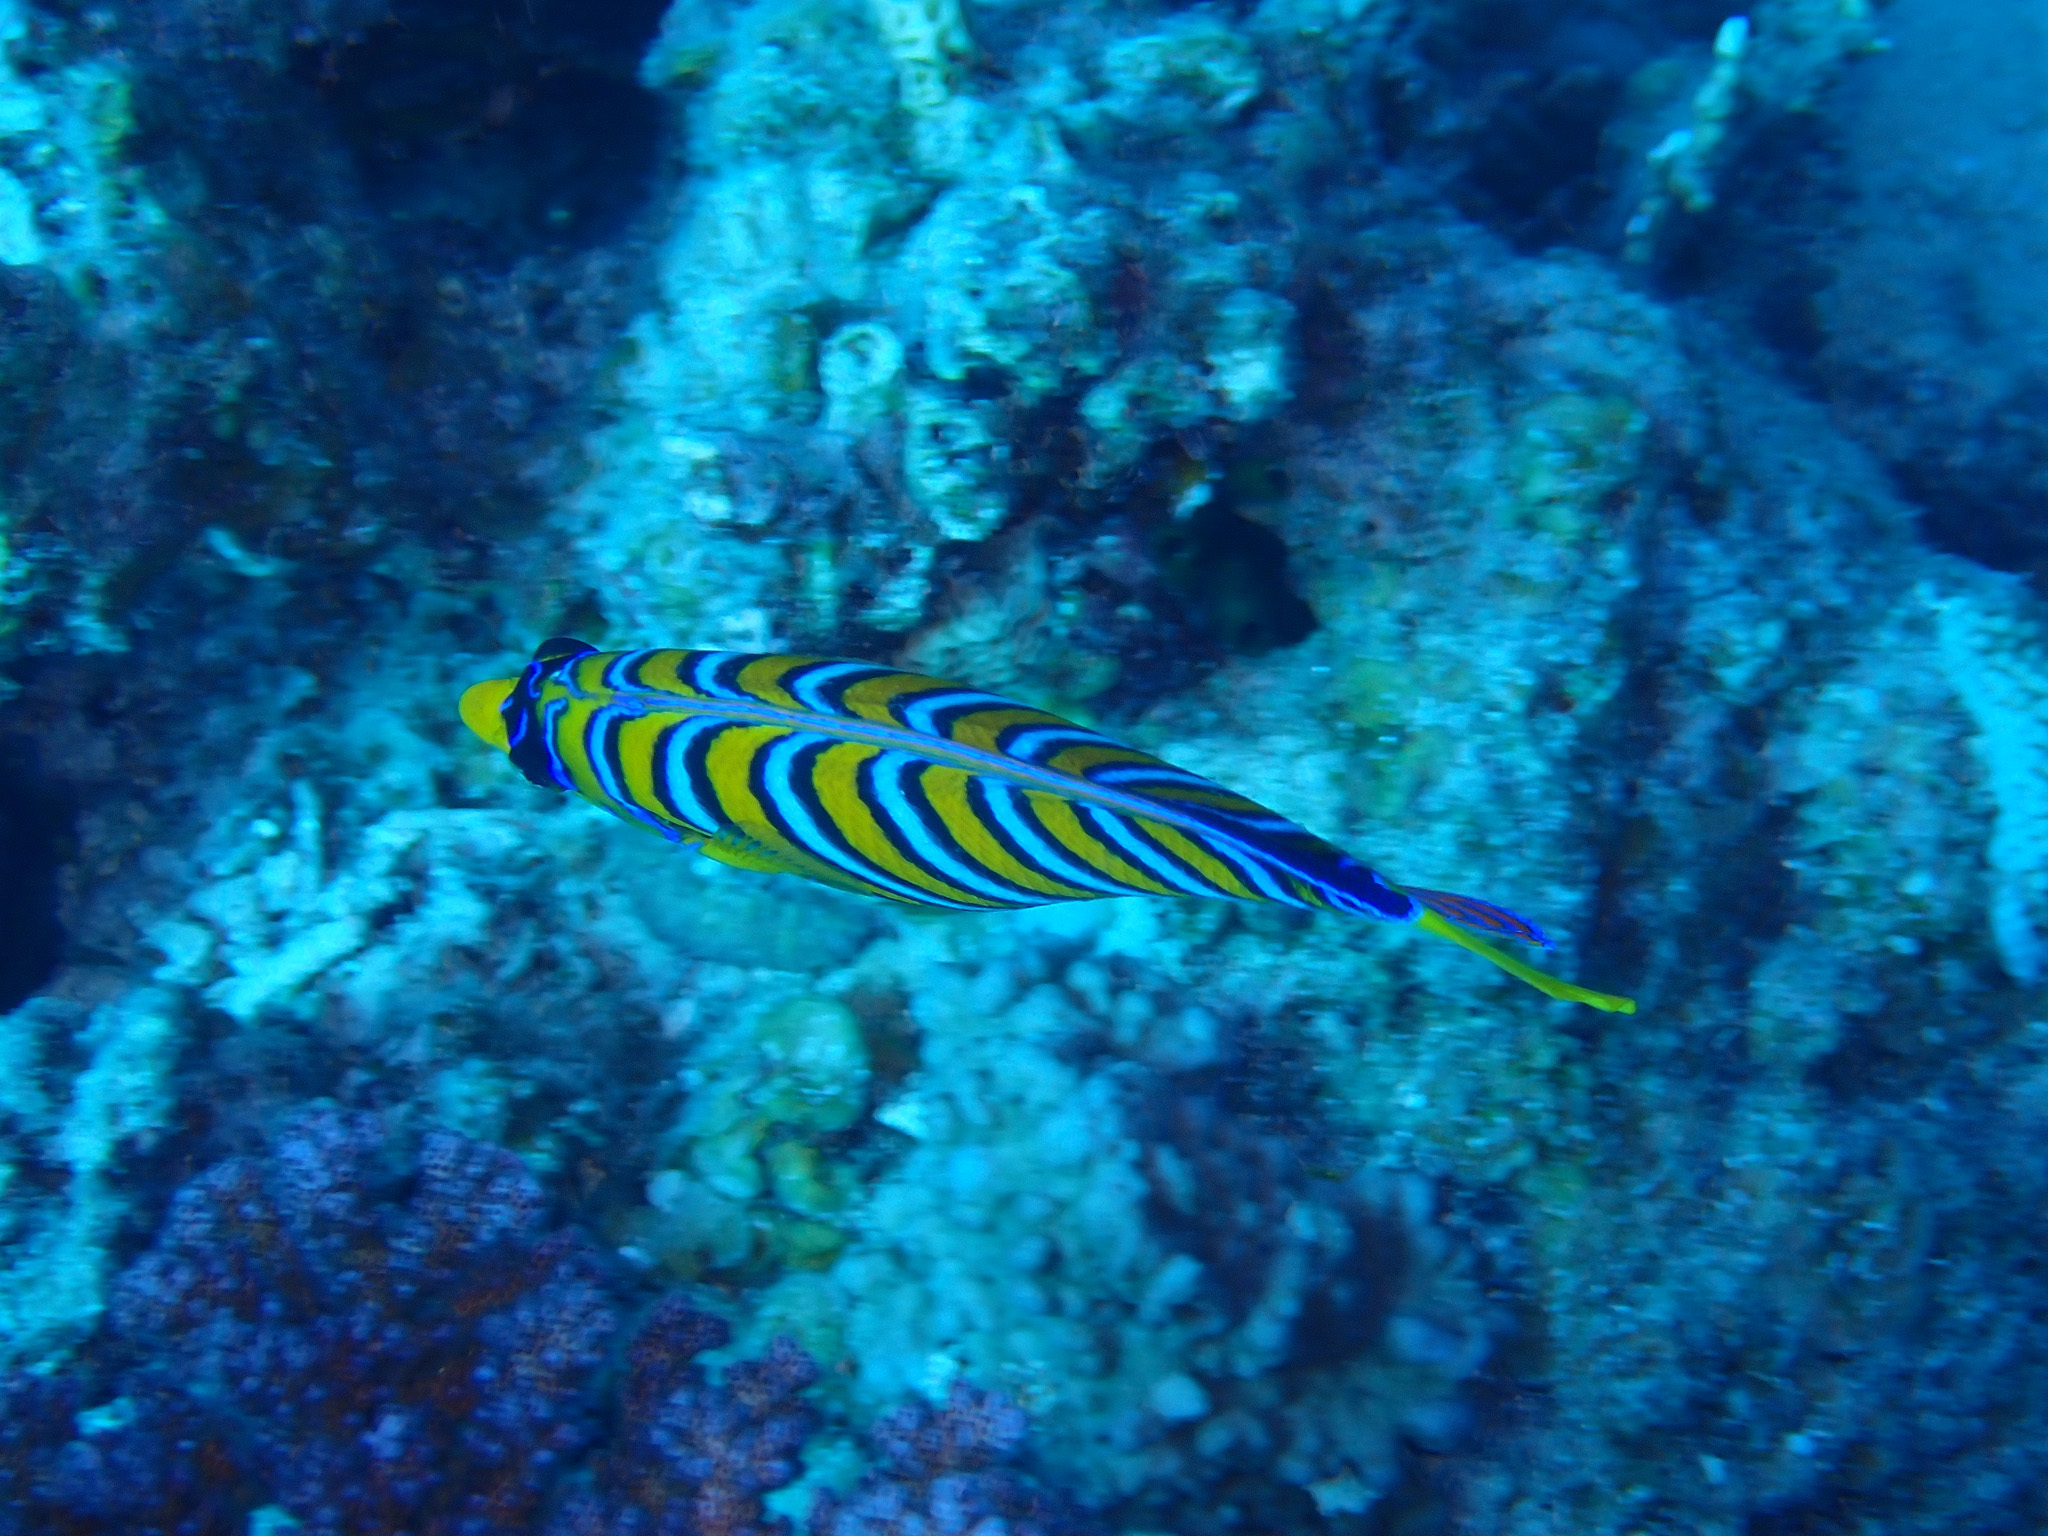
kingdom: Animalia
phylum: Chordata
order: Perciformes
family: Pomacanthidae
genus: Pygoplites
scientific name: Pygoplites diacanthus
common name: Regal angelfish
